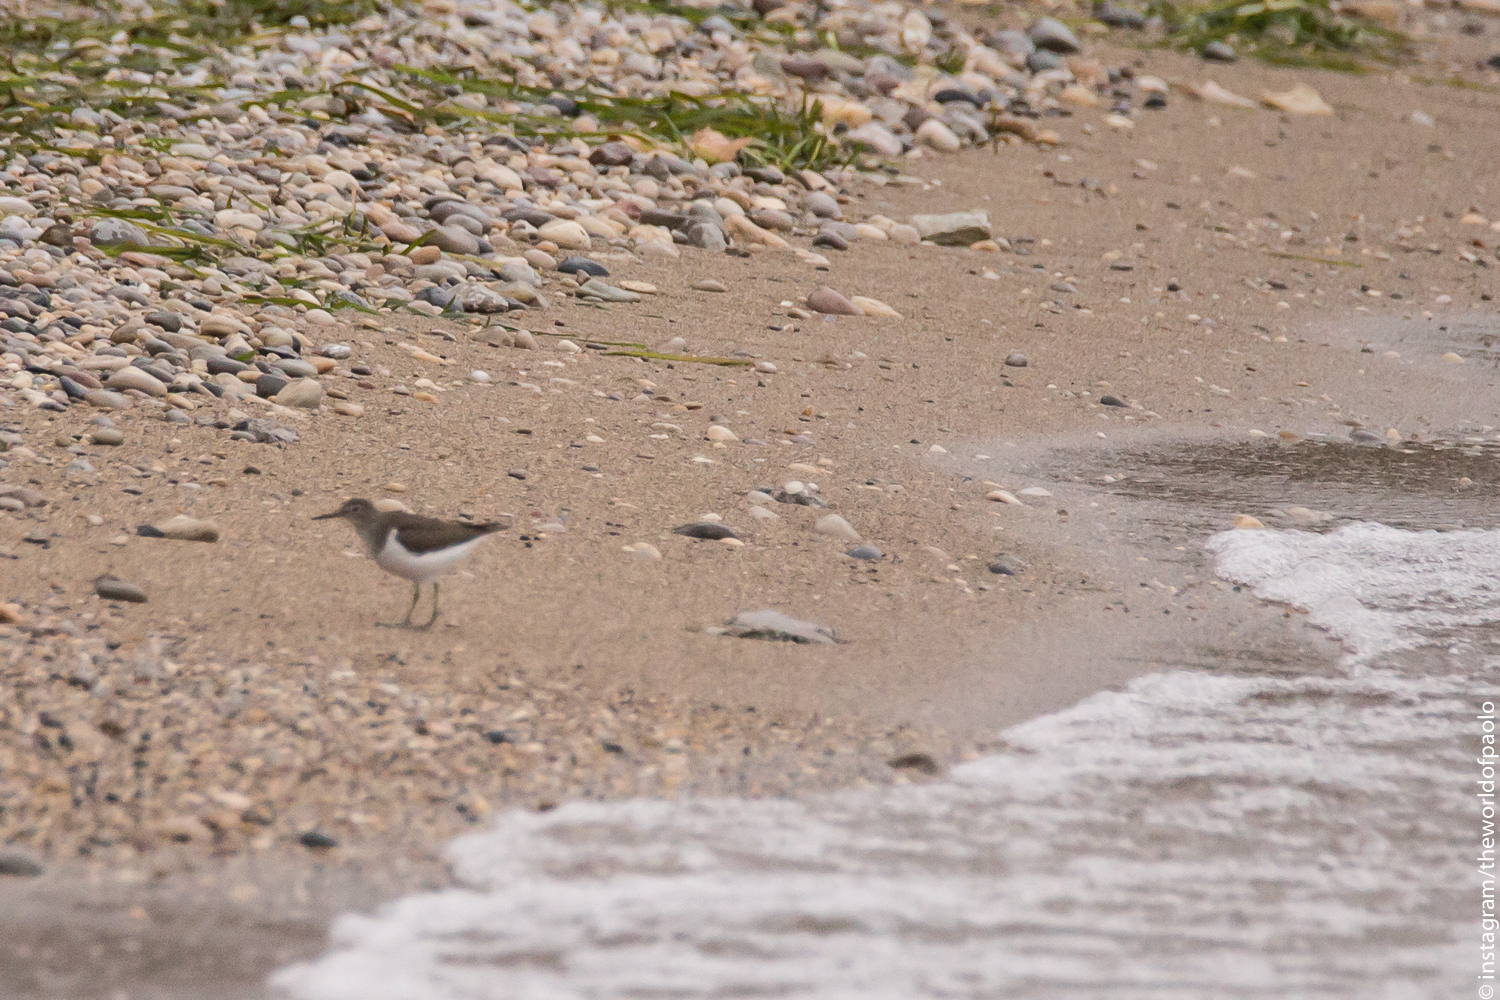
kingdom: Animalia
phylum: Chordata
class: Aves
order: Charadriiformes
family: Scolopacidae
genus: Actitis
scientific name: Actitis hypoleucos
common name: Common sandpiper
